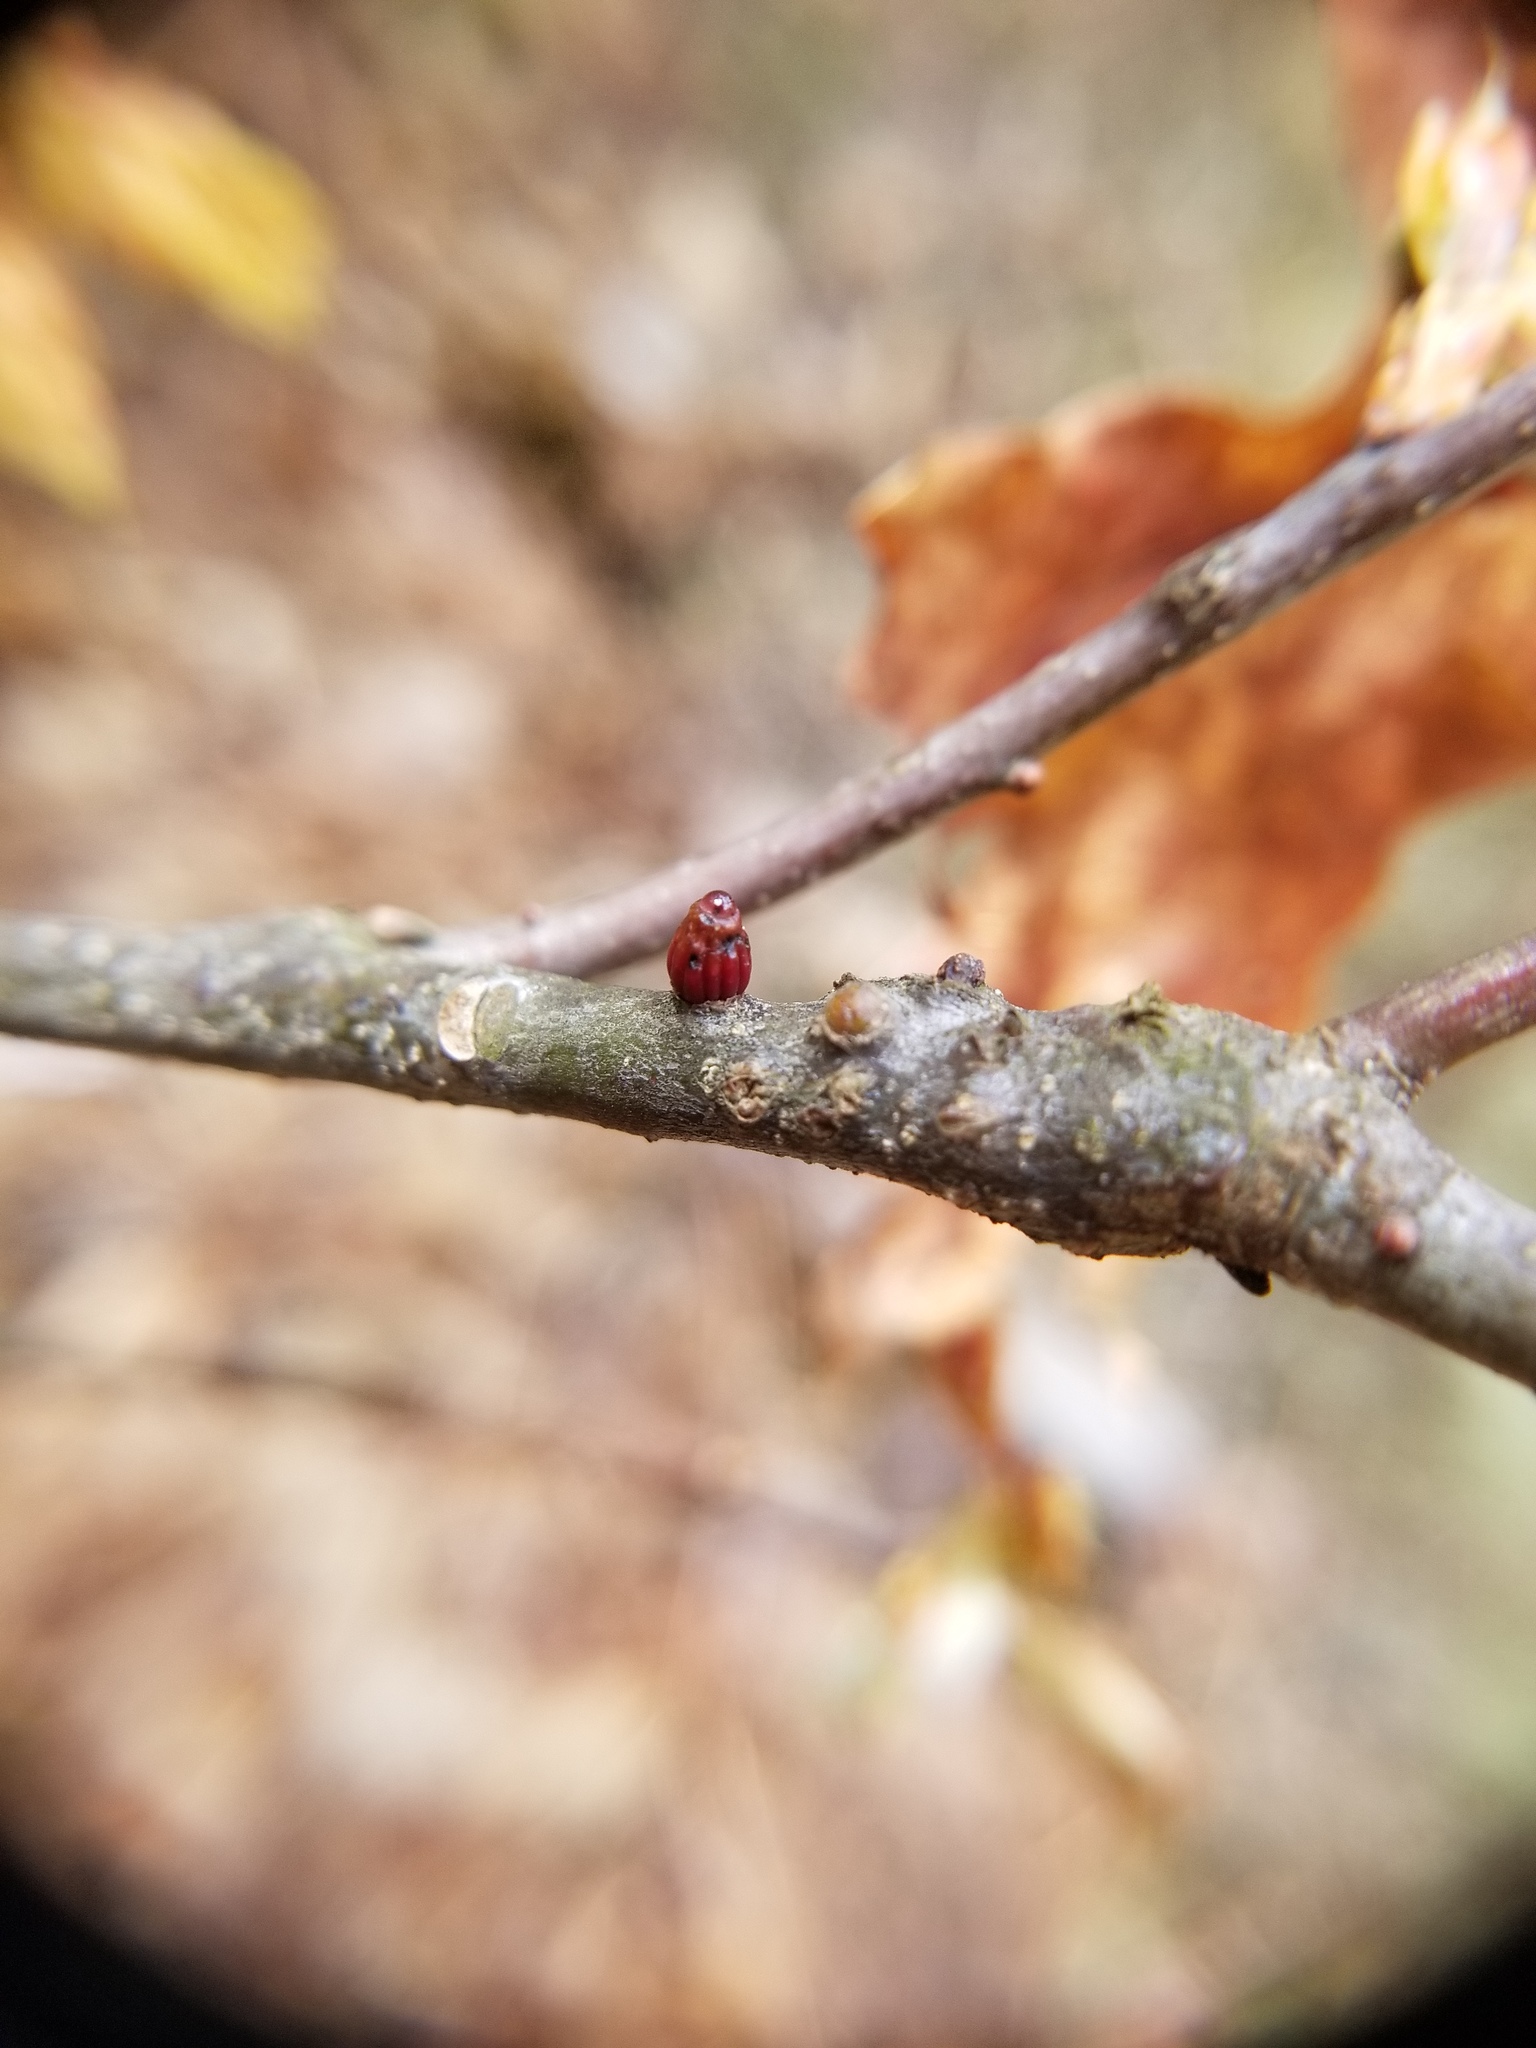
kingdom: Animalia
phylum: Arthropoda
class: Insecta
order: Hymenoptera
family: Cynipidae
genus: Callirhytis
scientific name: Callirhytis
